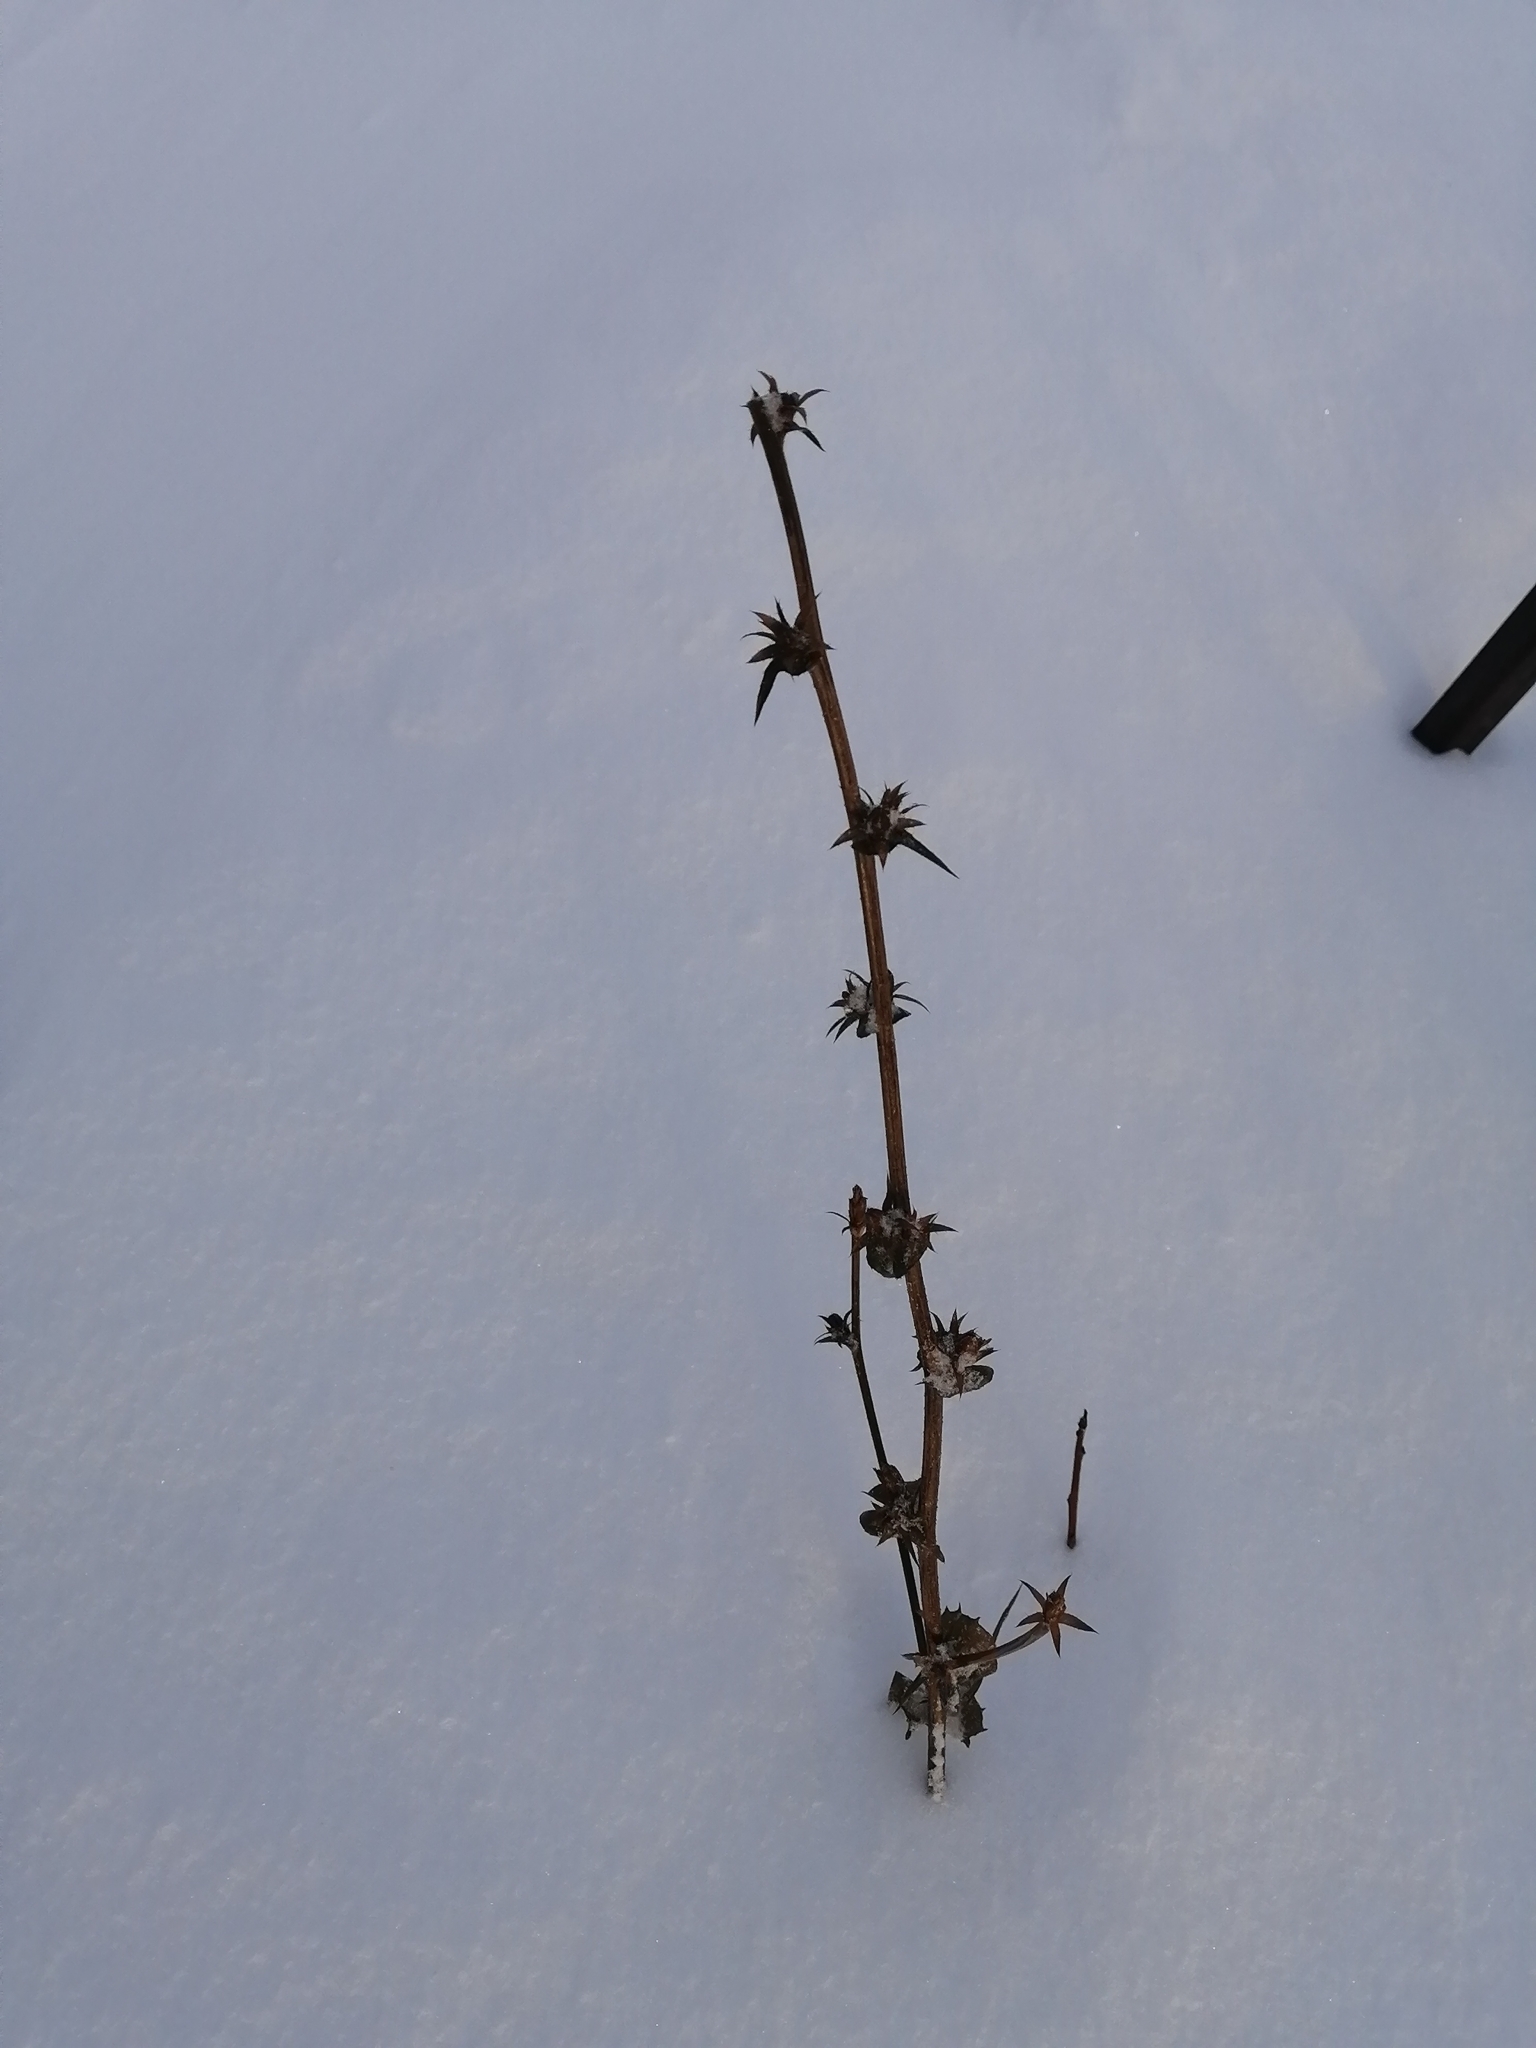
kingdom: Plantae
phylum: Tracheophyta
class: Magnoliopsida
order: Asterales
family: Asteraceae
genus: Cichorium
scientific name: Cichorium intybus
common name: Chicory
